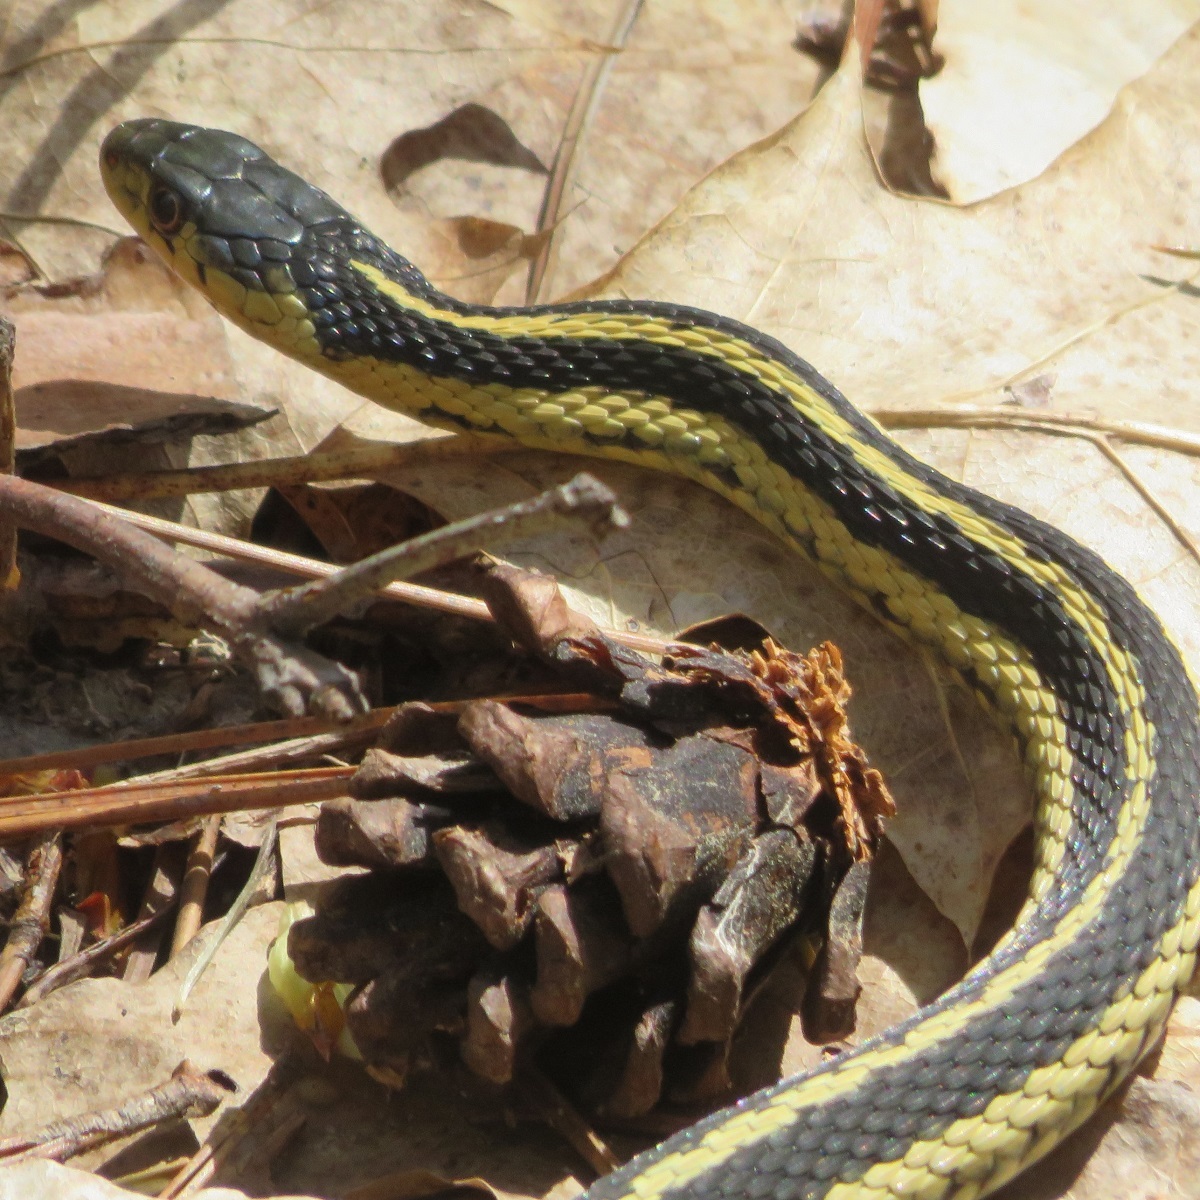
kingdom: Animalia
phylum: Chordata
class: Squamata
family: Colubridae
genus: Thamnophis
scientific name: Thamnophis sirtalis
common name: Common garter snake
